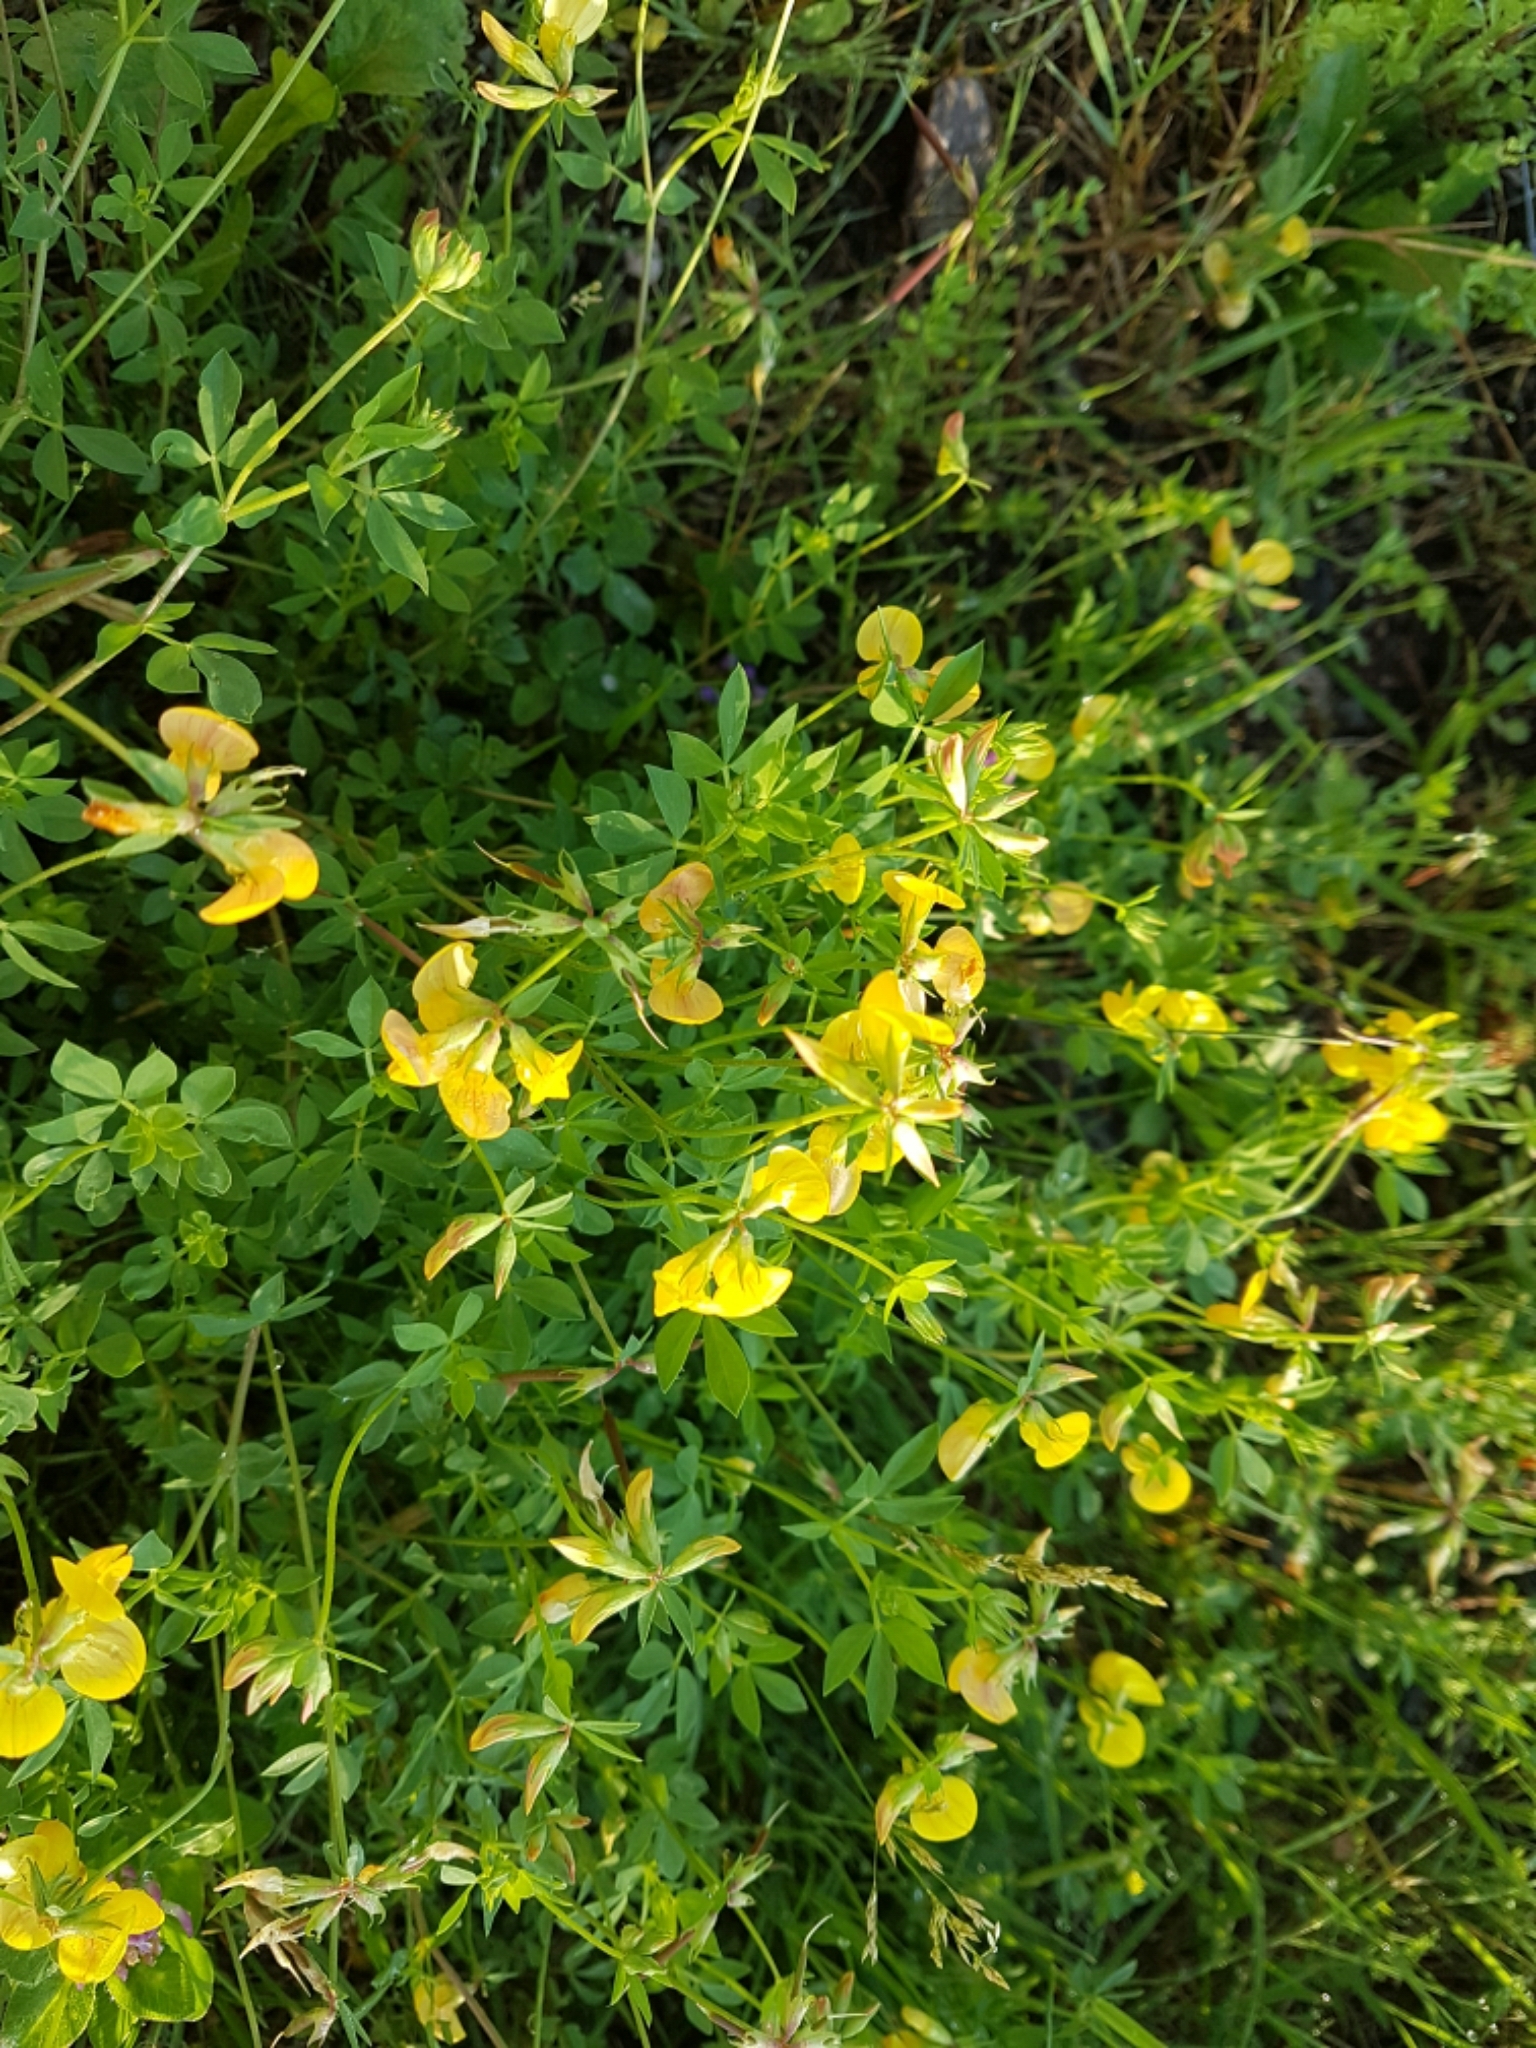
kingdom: Plantae
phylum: Tracheophyta
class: Magnoliopsida
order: Fabales
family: Fabaceae
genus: Lotus
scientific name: Lotus corniculatus
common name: Common bird's-foot-trefoil
